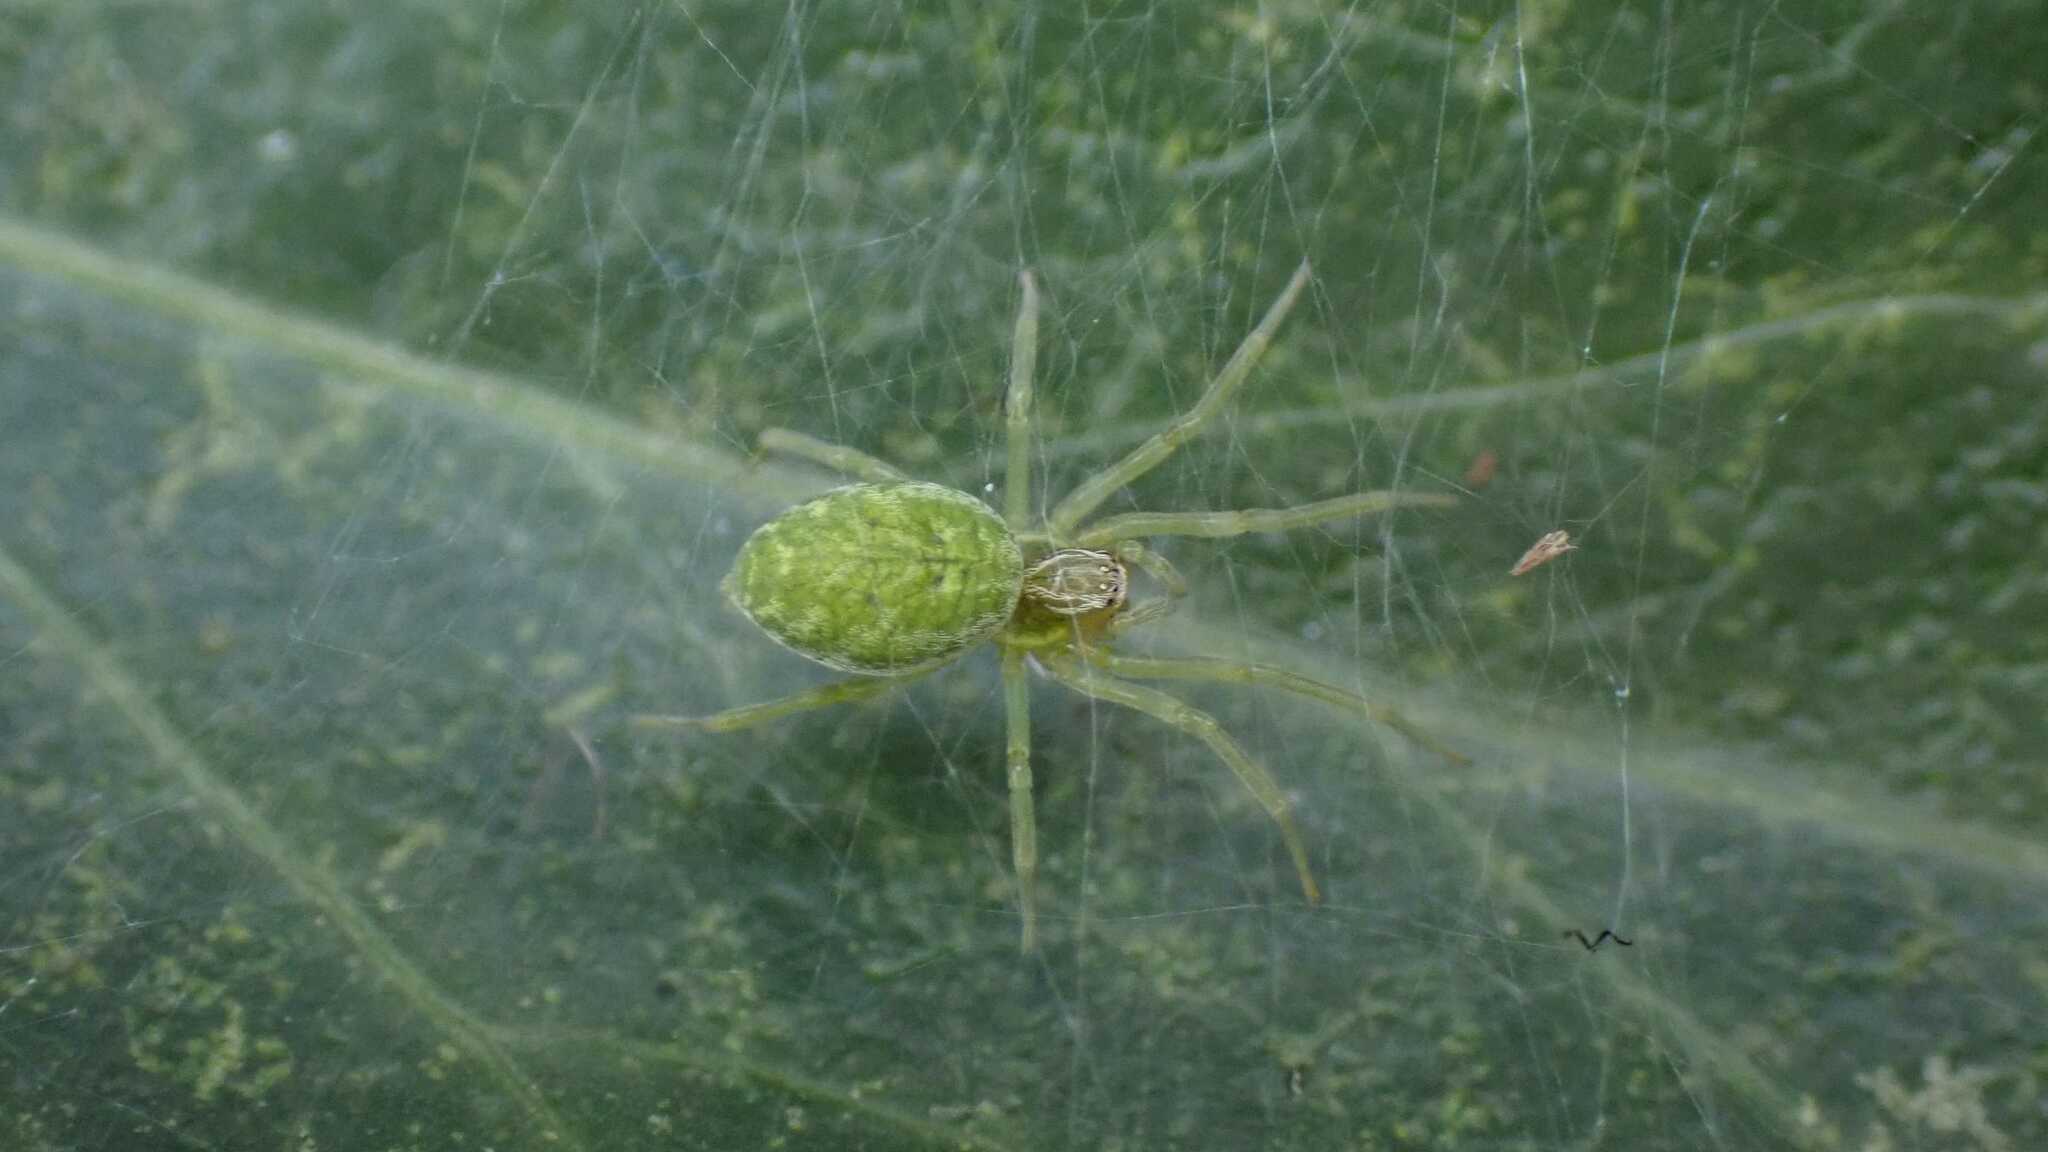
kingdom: Animalia
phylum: Arthropoda
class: Arachnida
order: Araneae
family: Dictynidae
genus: Nigma
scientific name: Nigma walckenaeri
